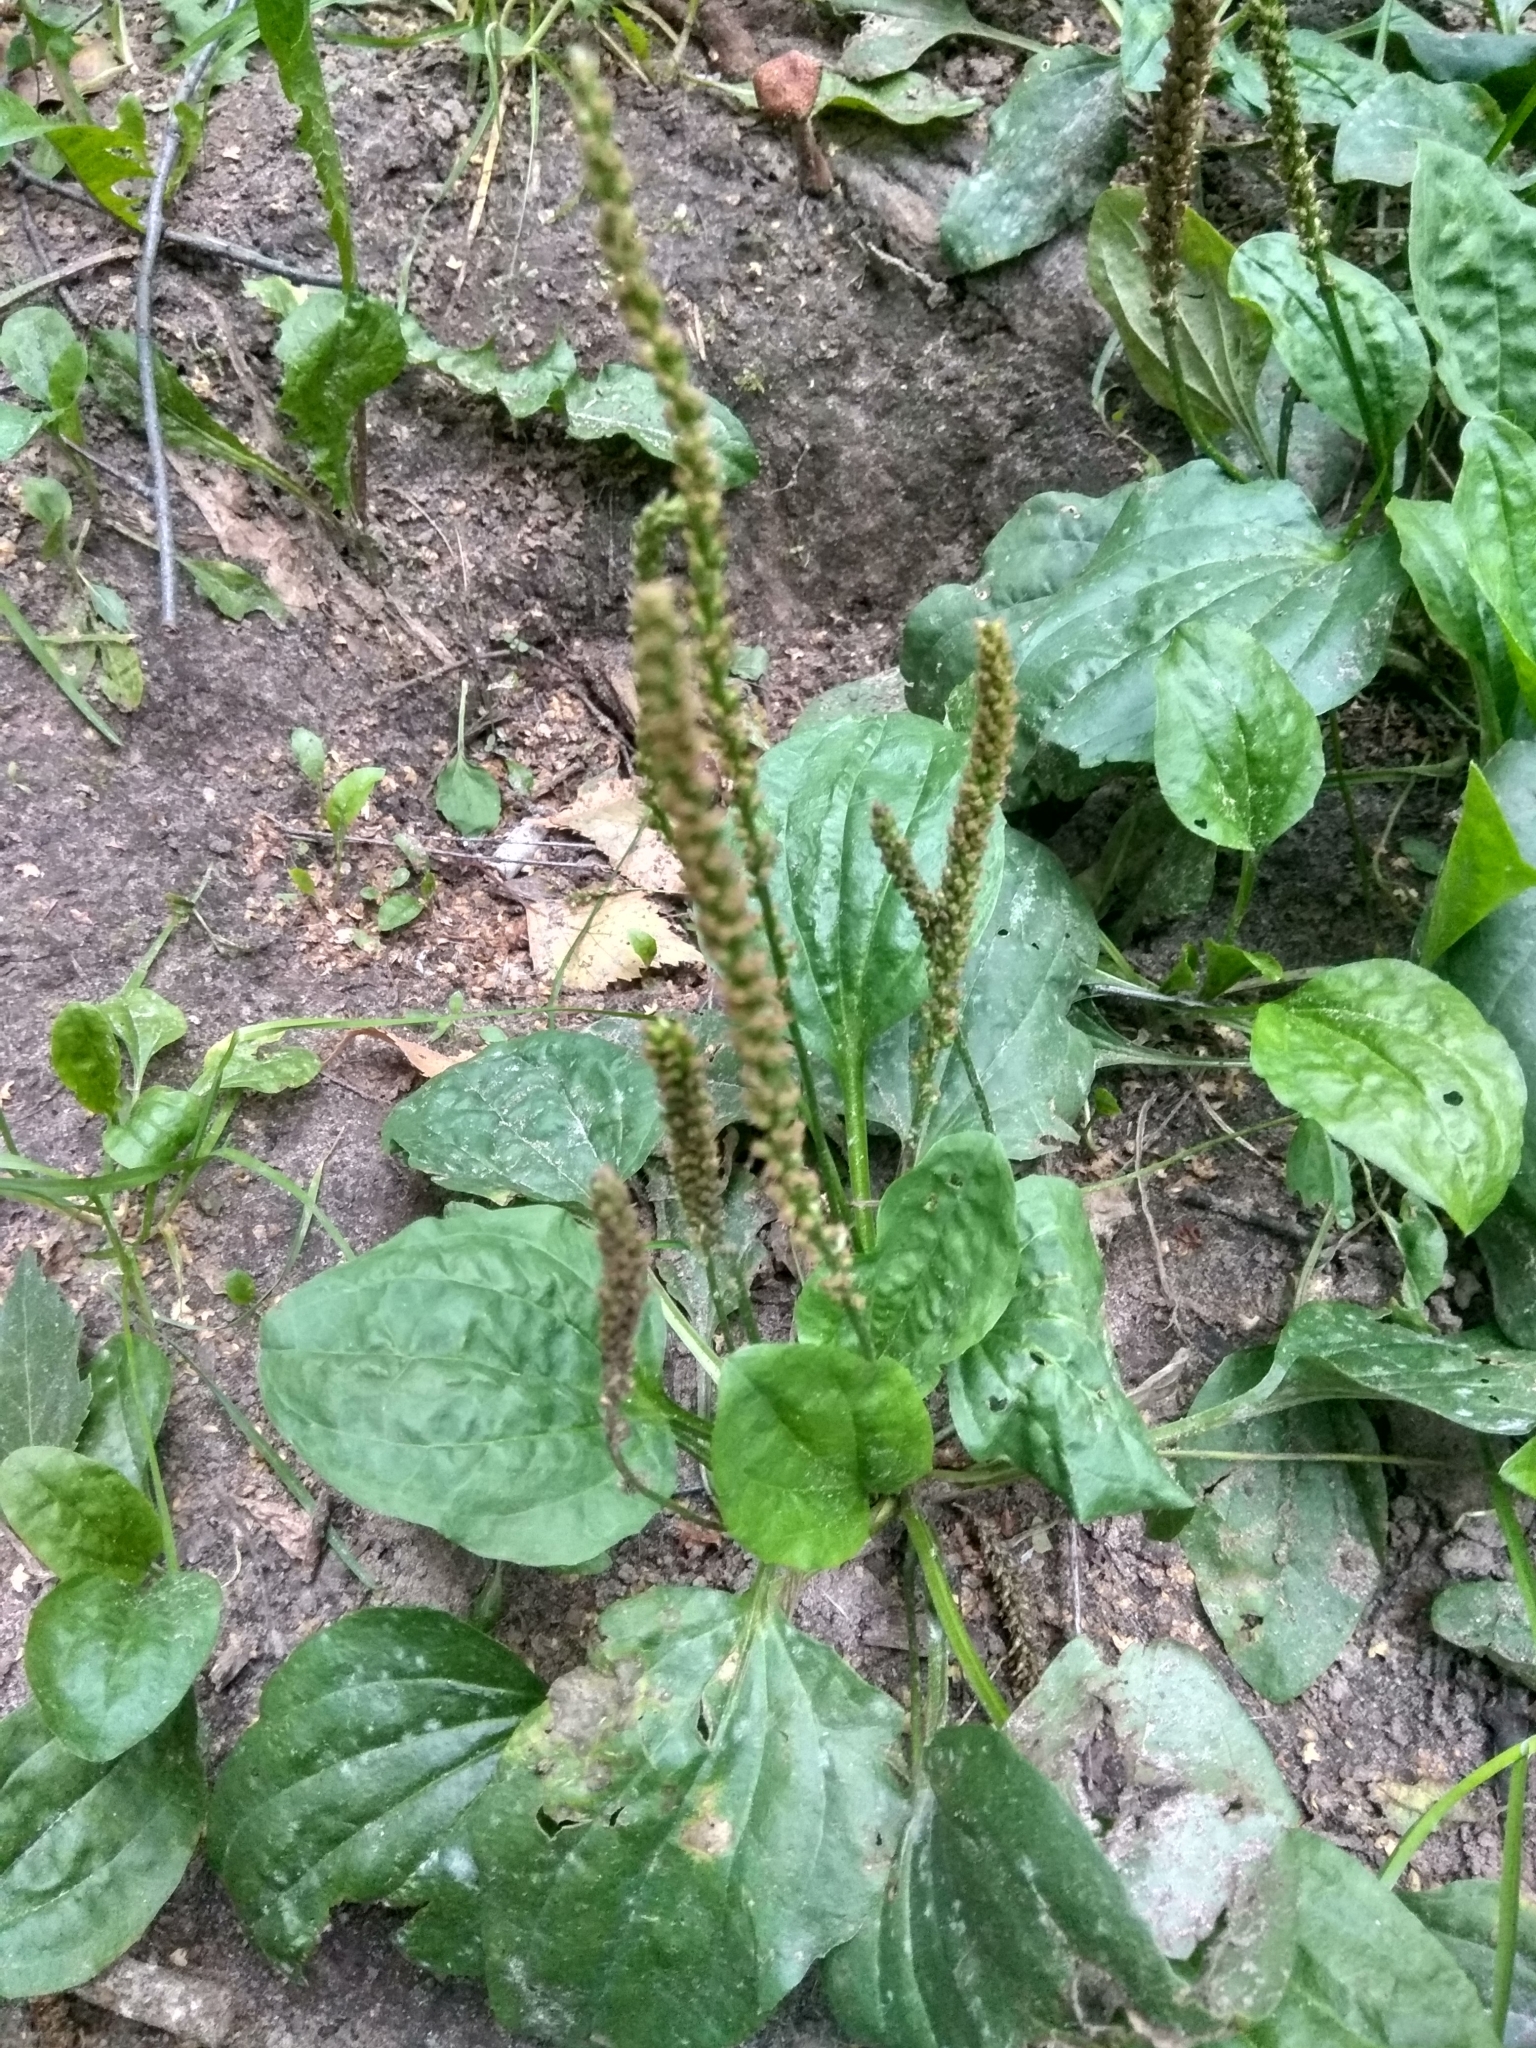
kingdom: Plantae
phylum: Tracheophyta
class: Magnoliopsida
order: Lamiales
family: Plantaginaceae
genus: Plantago
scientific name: Plantago major
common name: Common plantain
